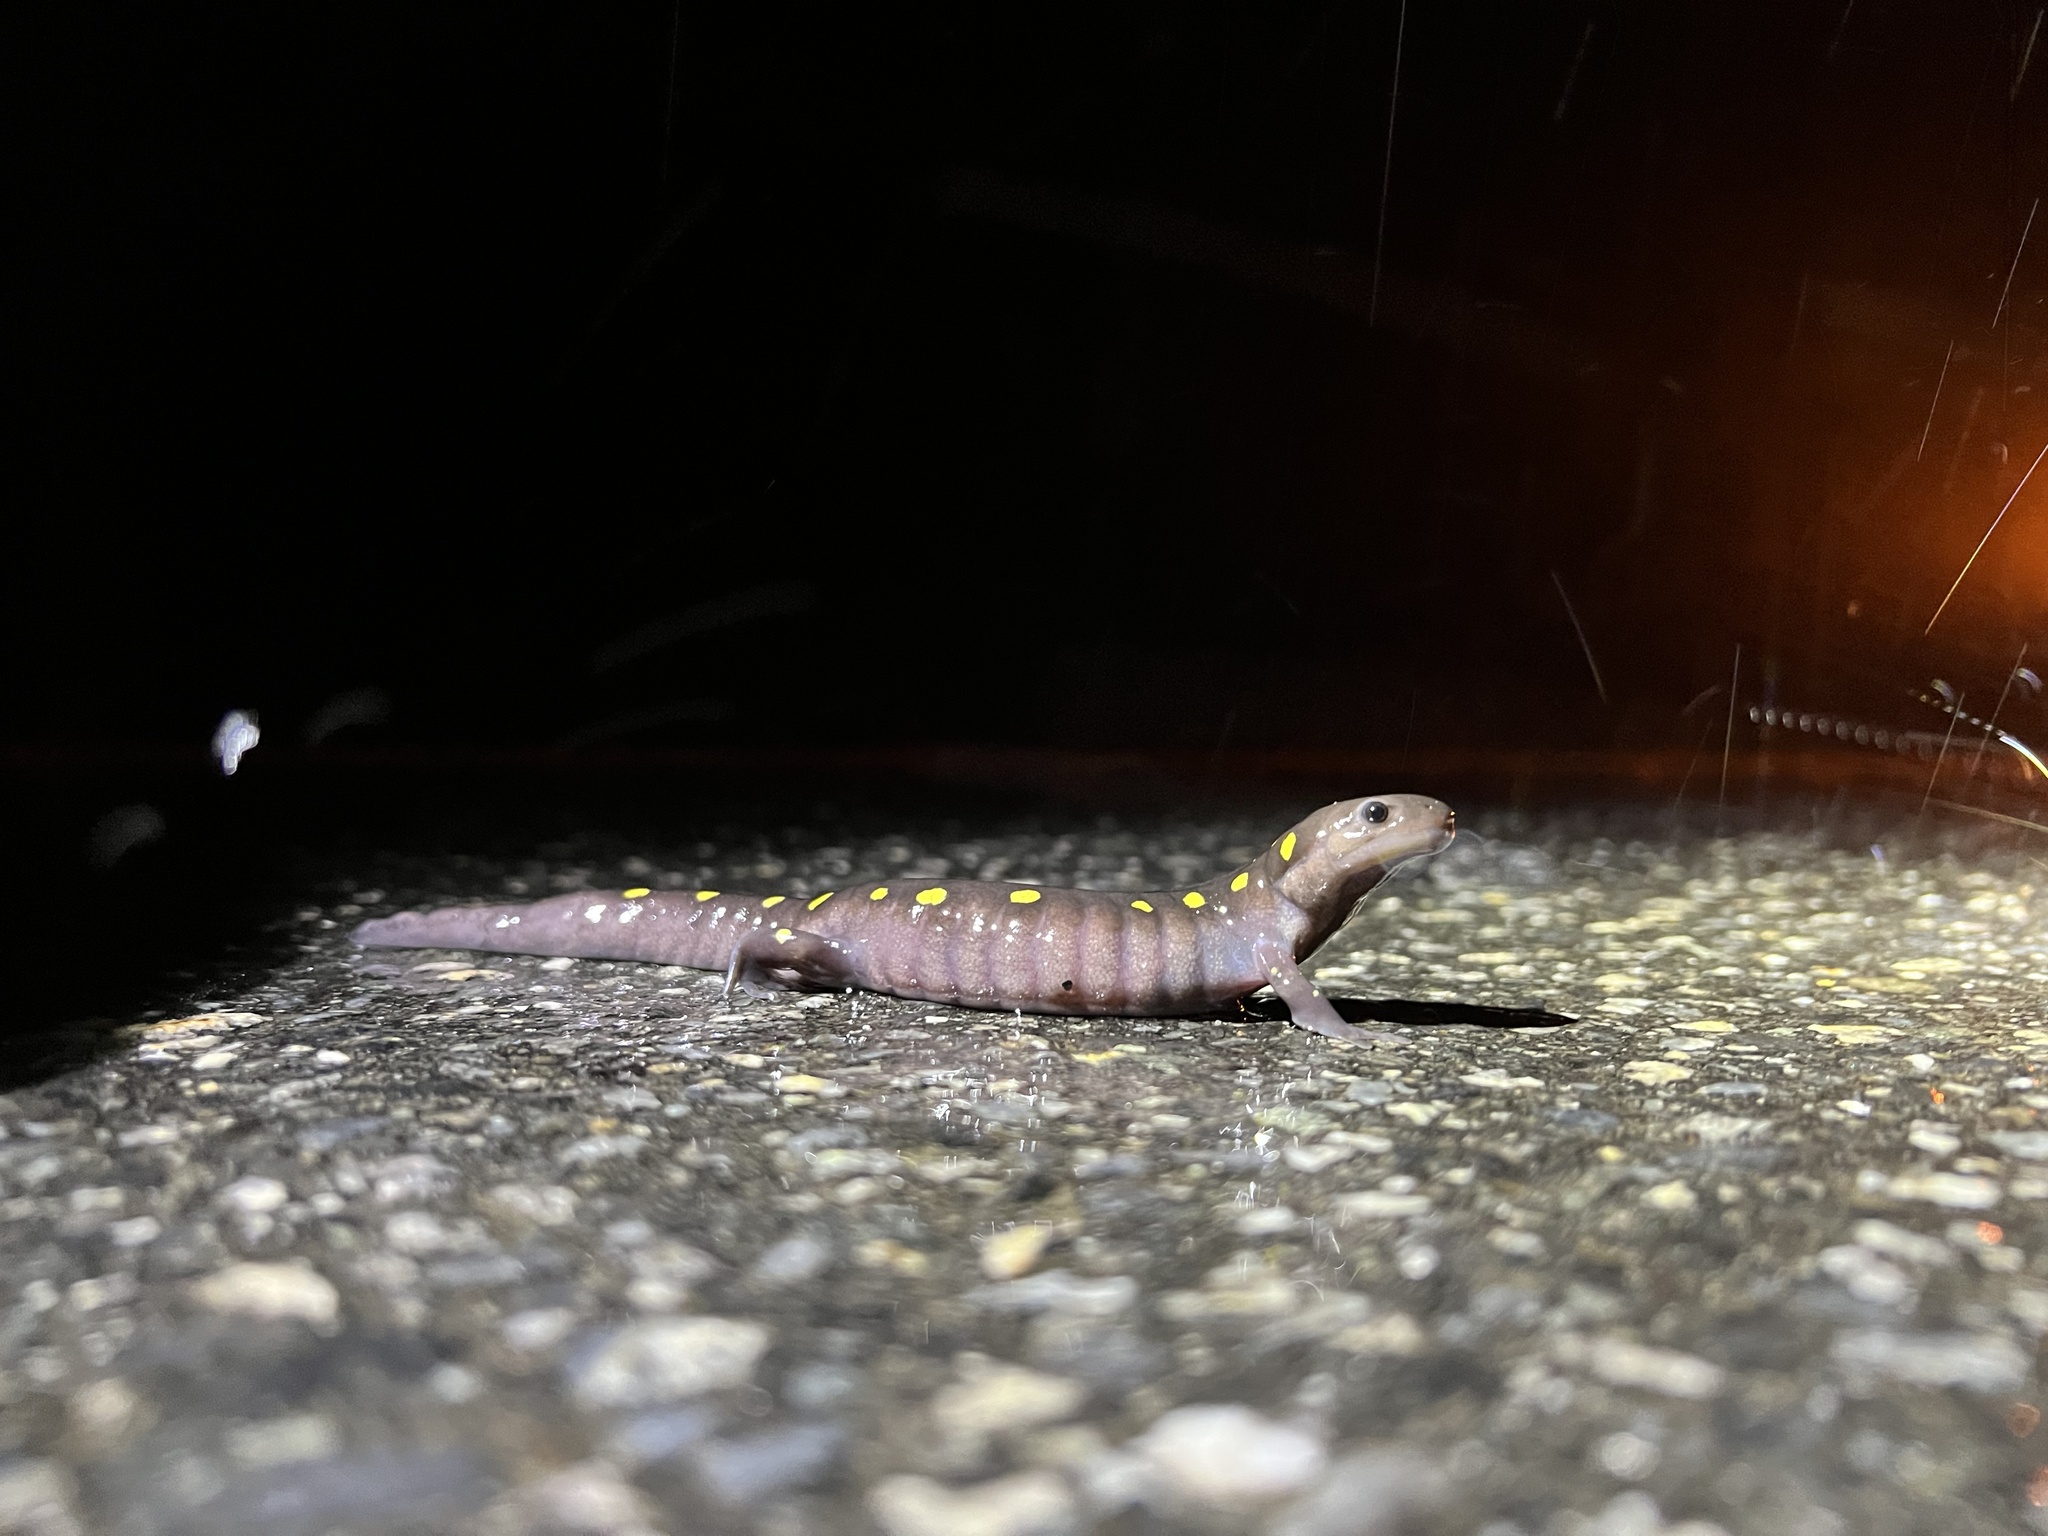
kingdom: Animalia
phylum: Chordata
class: Amphibia
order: Caudata
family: Ambystomatidae
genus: Ambystoma
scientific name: Ambystoma maculatum
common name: Spotted salamander
